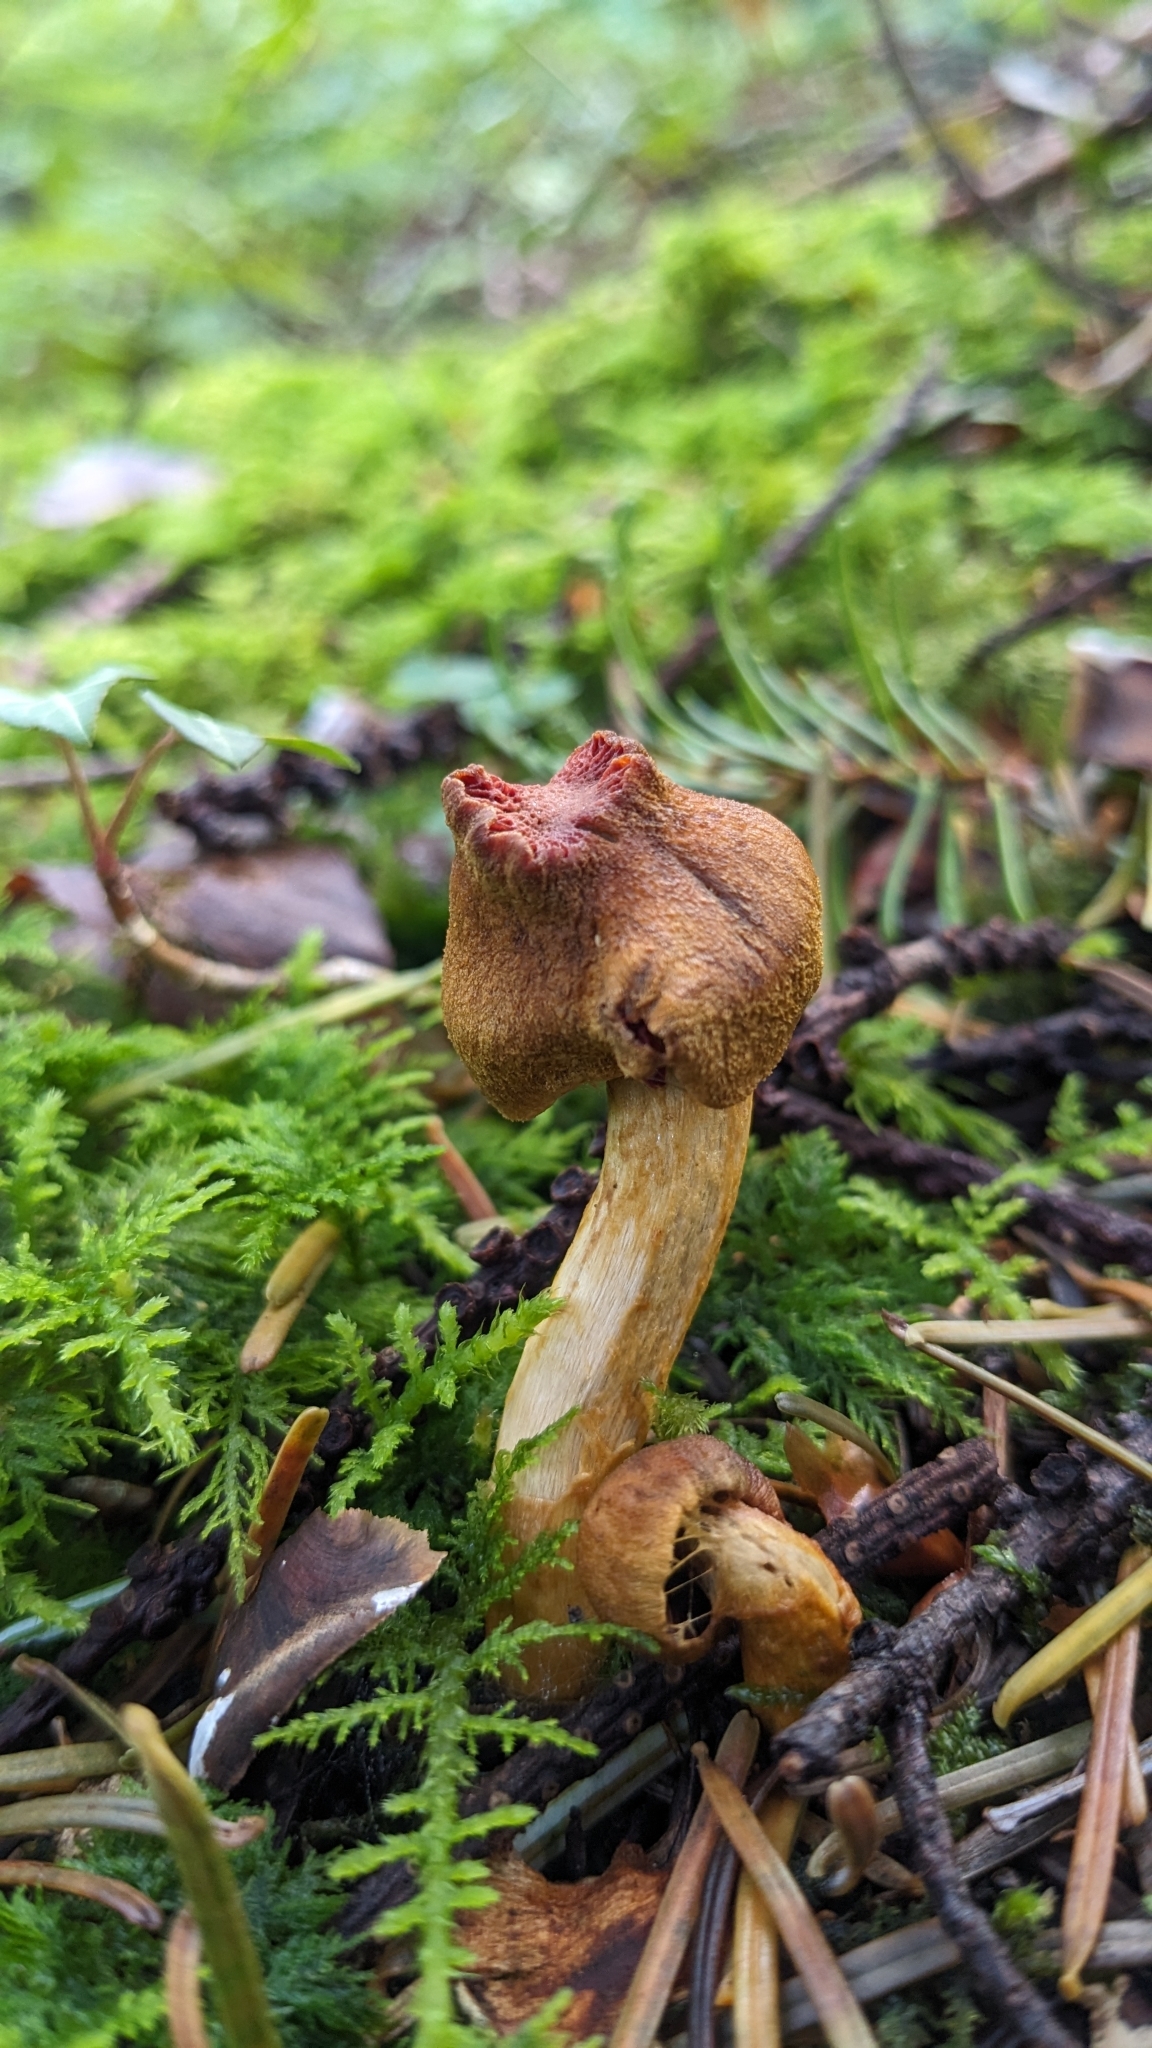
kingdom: Fungi
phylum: Basidiomycota
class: Agaricomycetes
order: Agaricales
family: Cortinariaceae
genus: Cortinarius
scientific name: Cortinarius semisanguineus
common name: Surprise webcap
